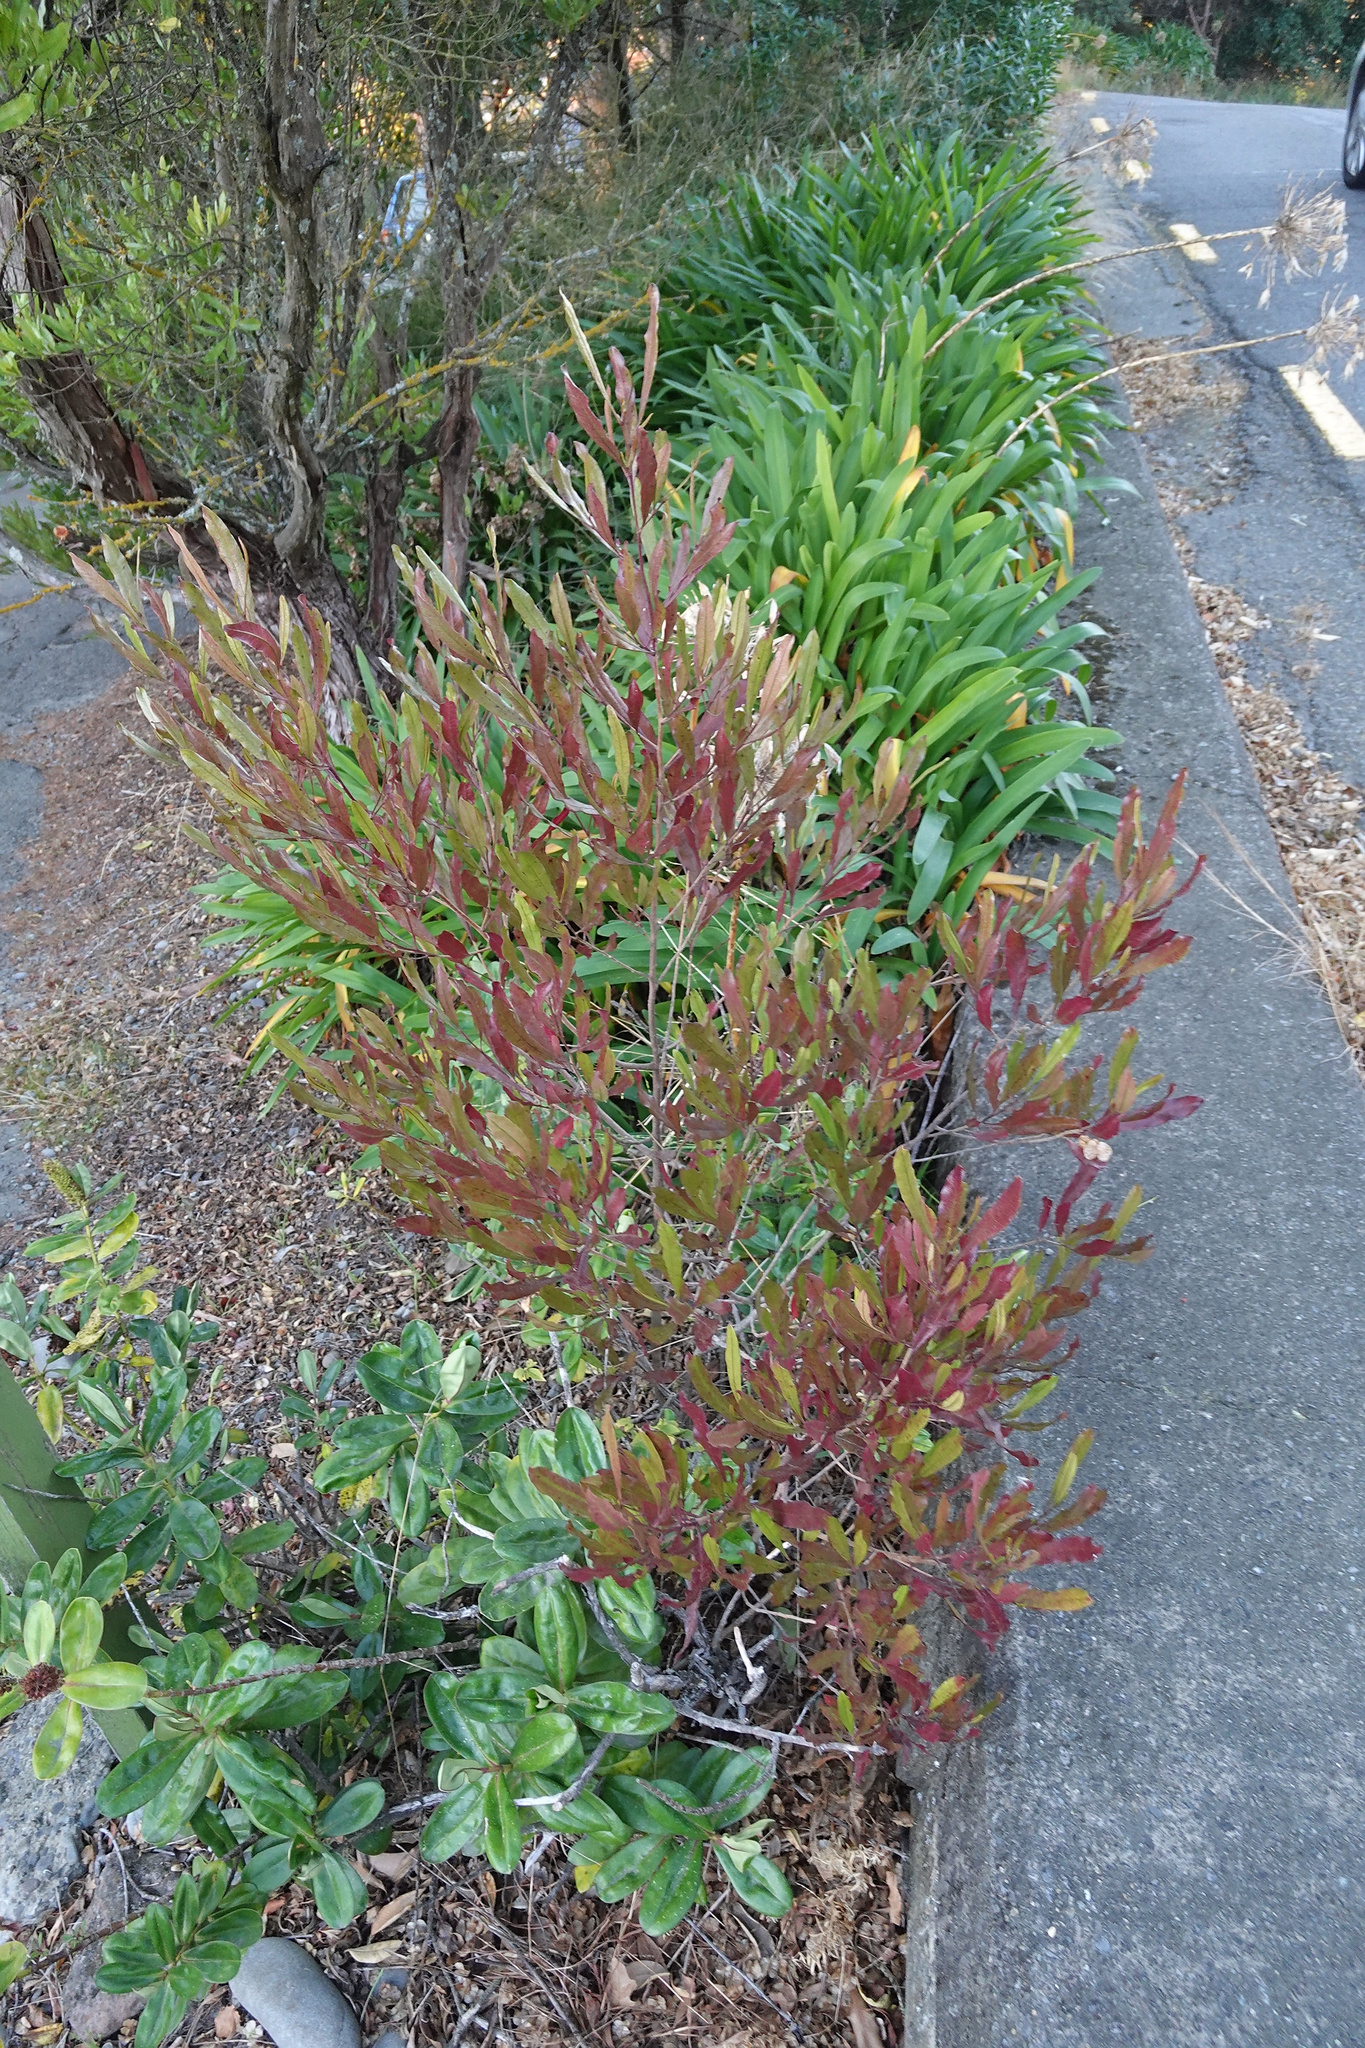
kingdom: Plantae
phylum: Tracheophyta
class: Magnoliopsida
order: Sapindales
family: Sapindaceae
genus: Dodonaea
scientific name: Dodonaea viscosa
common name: Hopbush
